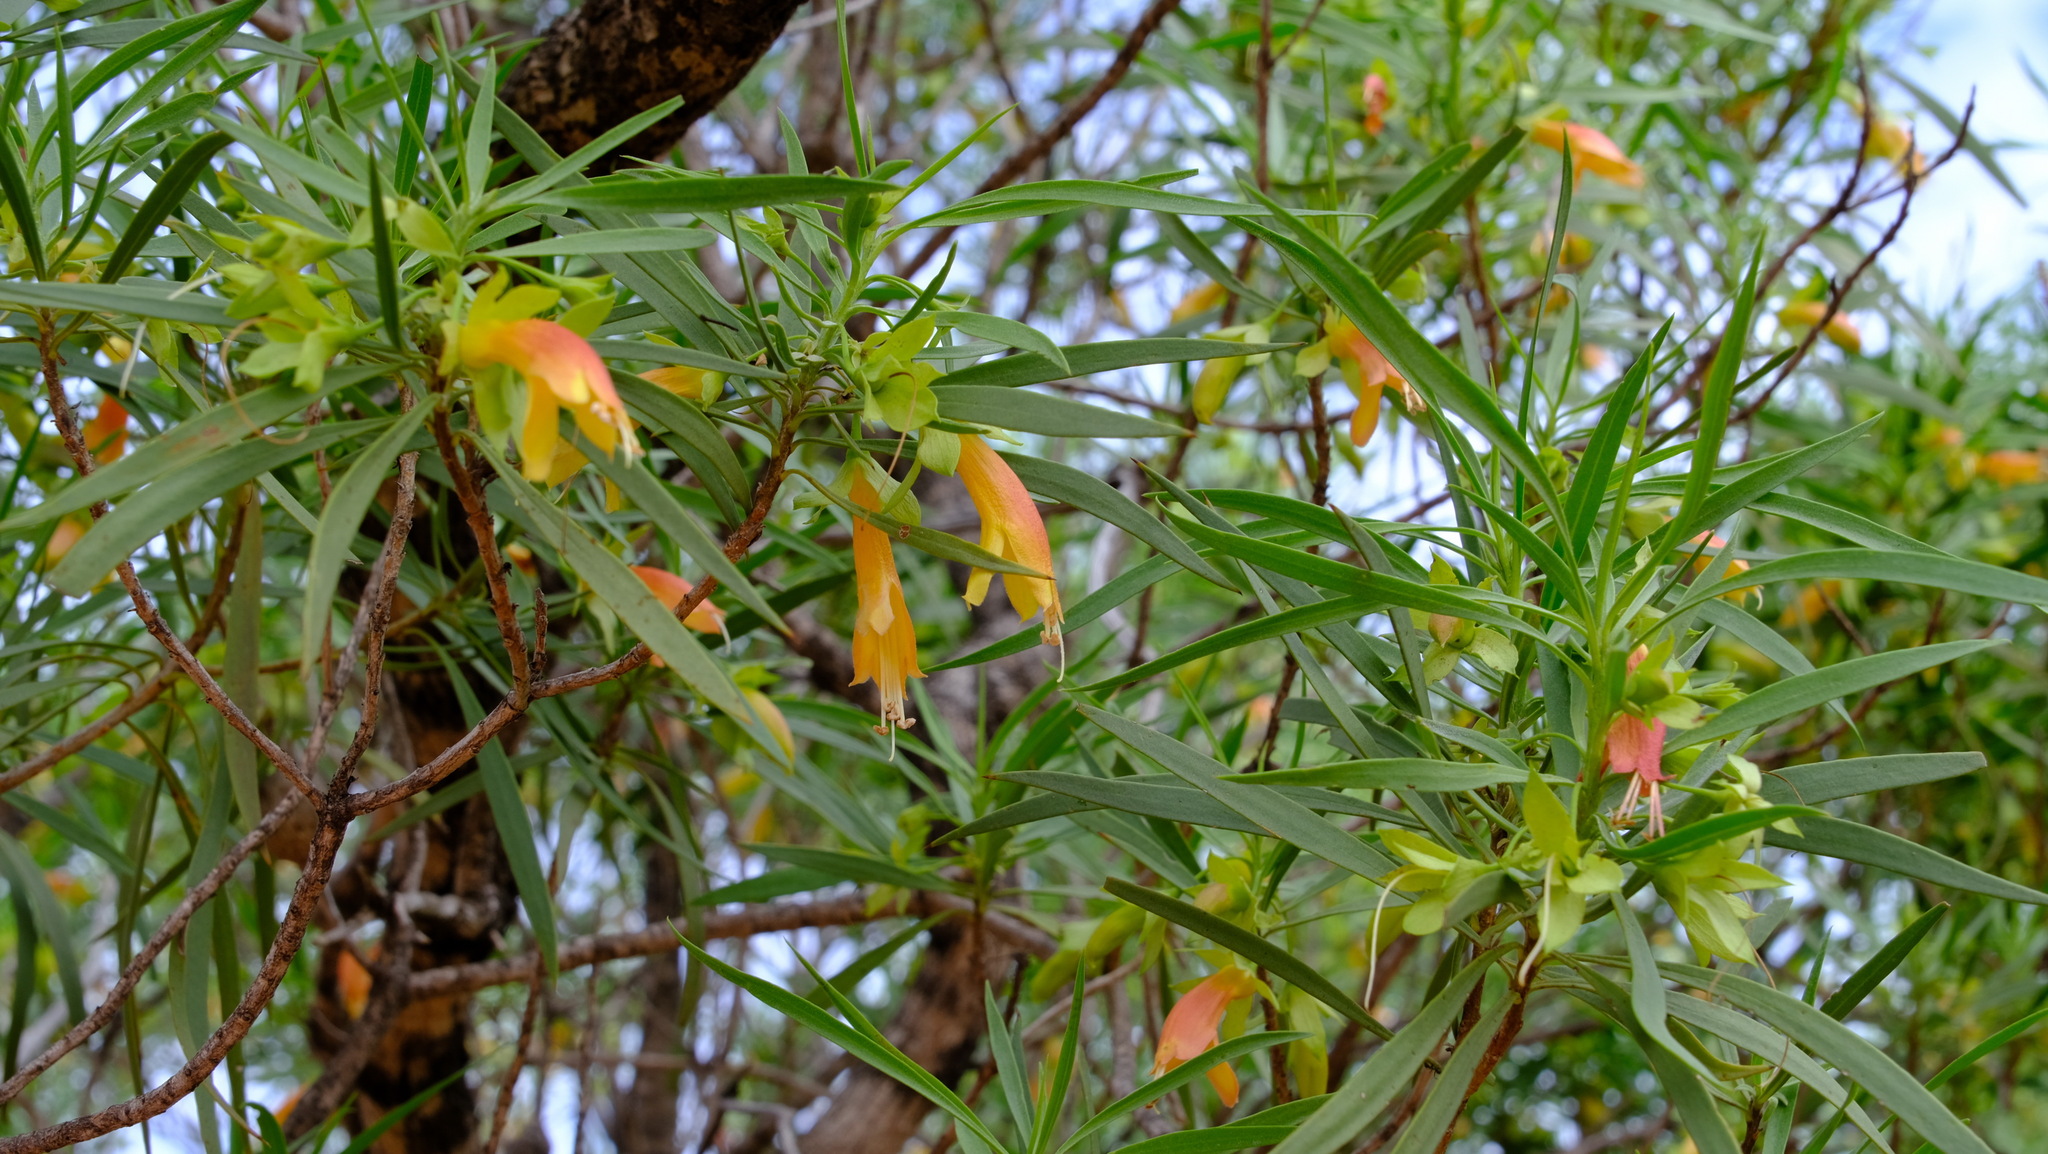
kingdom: Plantae
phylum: Tracheophyta
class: Magnoliopsida
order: Lamiales
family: Scrophulariaceae
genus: Eremophila
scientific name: Eremophila oldfieldii
